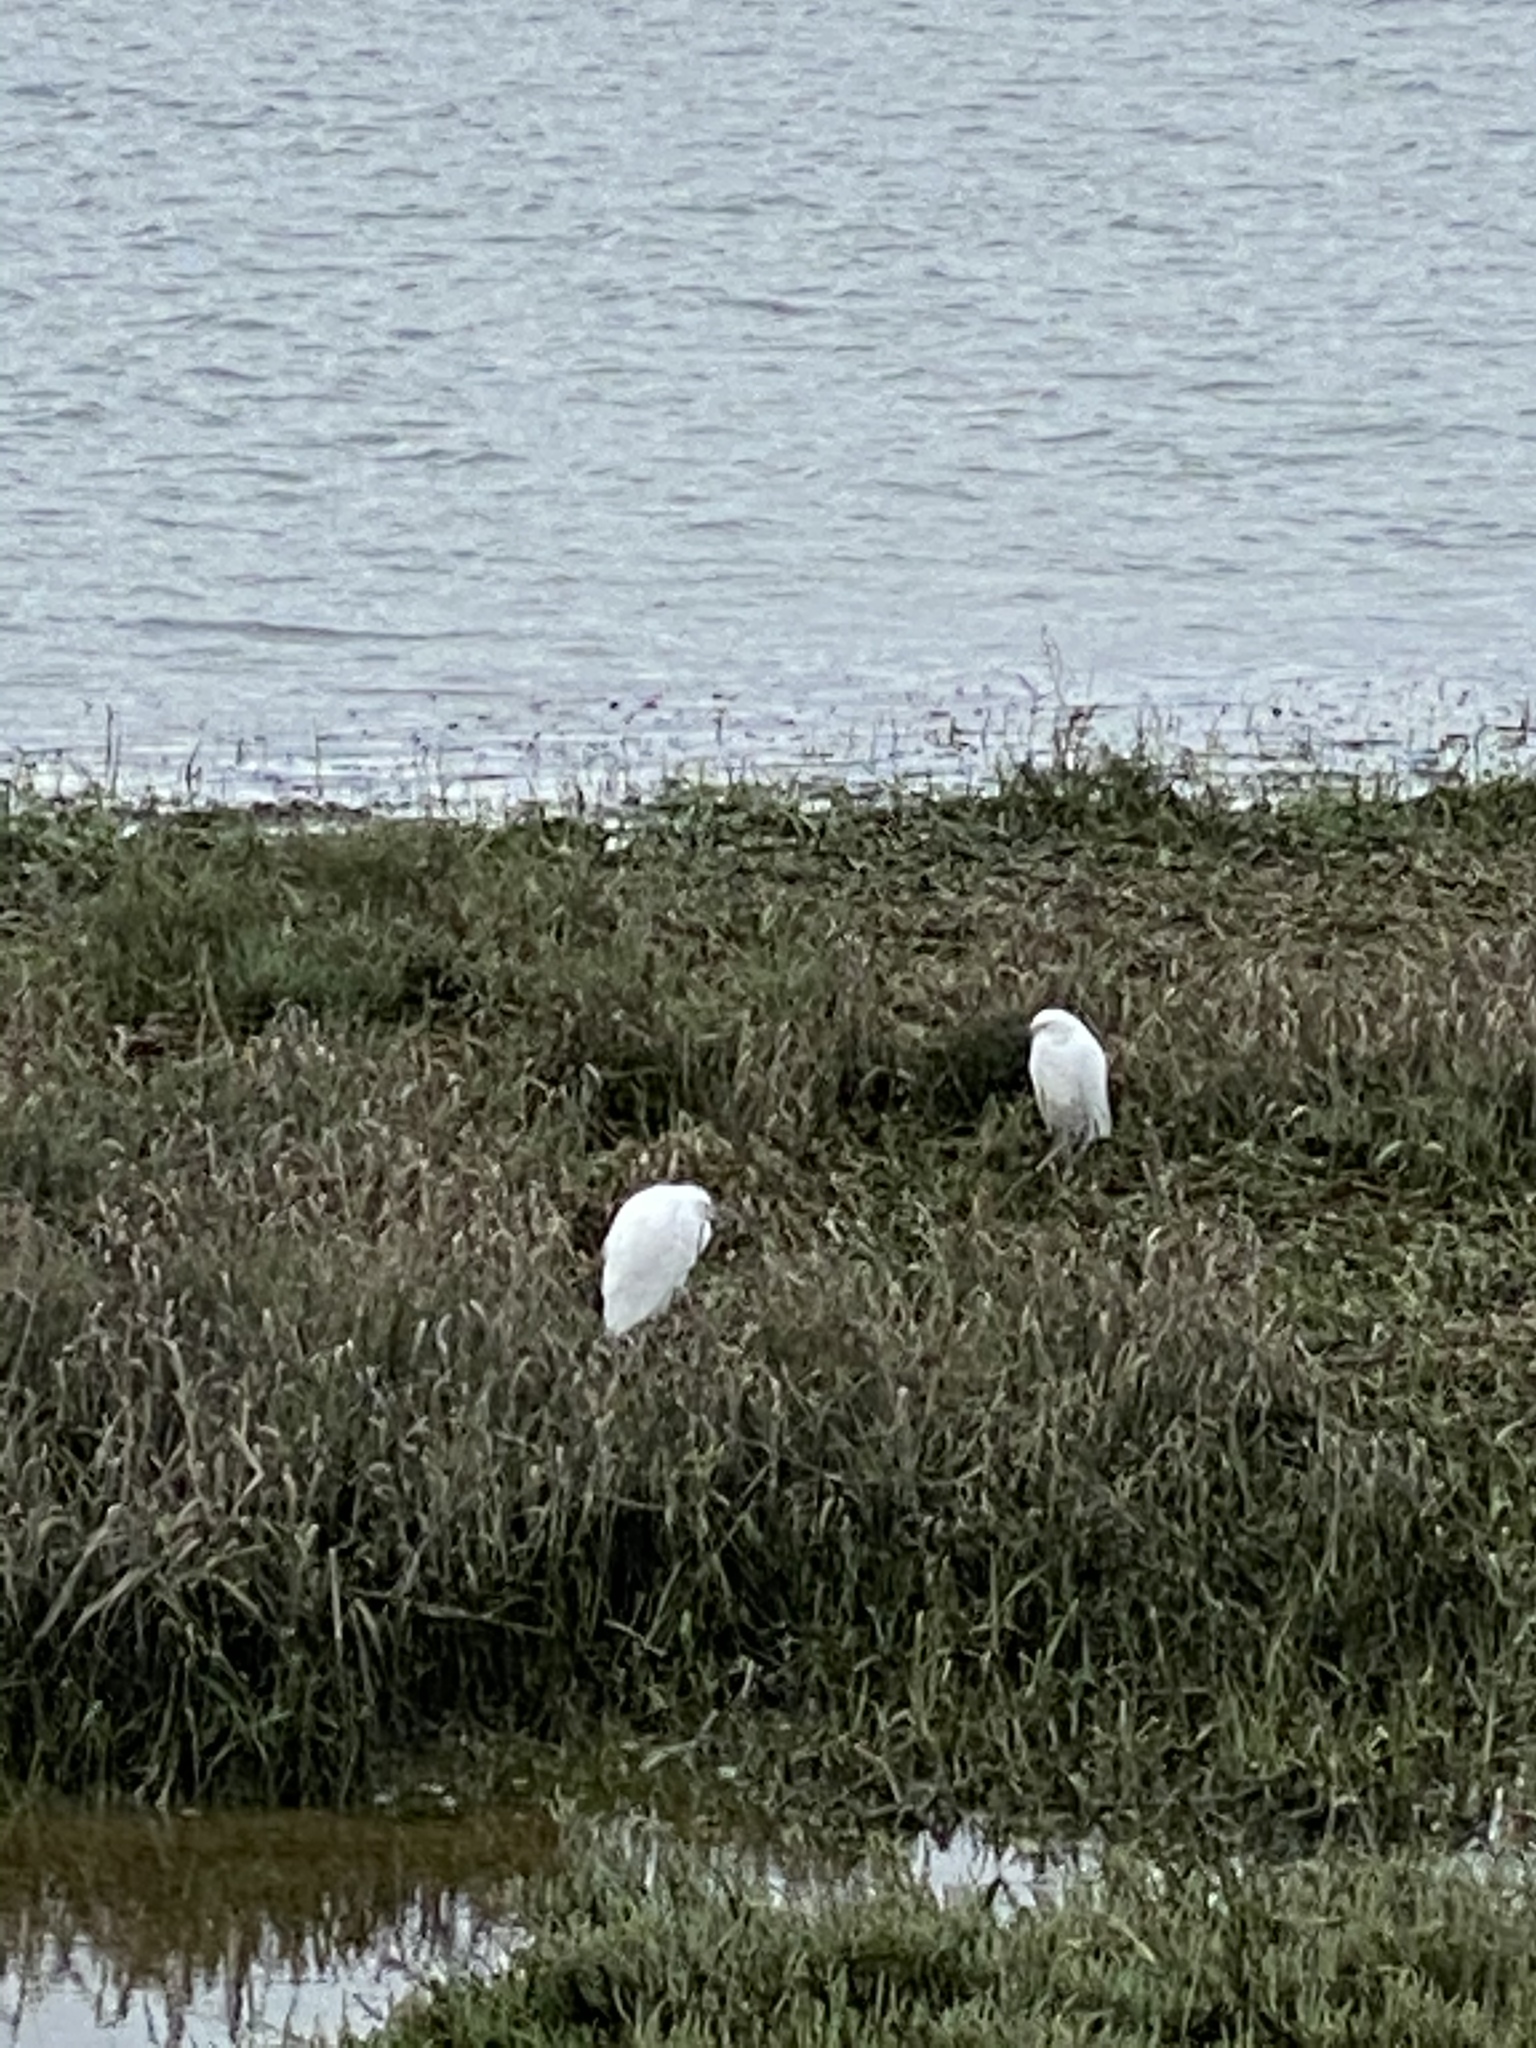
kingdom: Animalia
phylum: Chordata
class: Aves
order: Pelecaniformes
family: Ardeidae
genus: Egretta
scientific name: Egretta thula
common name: Snowy egret
